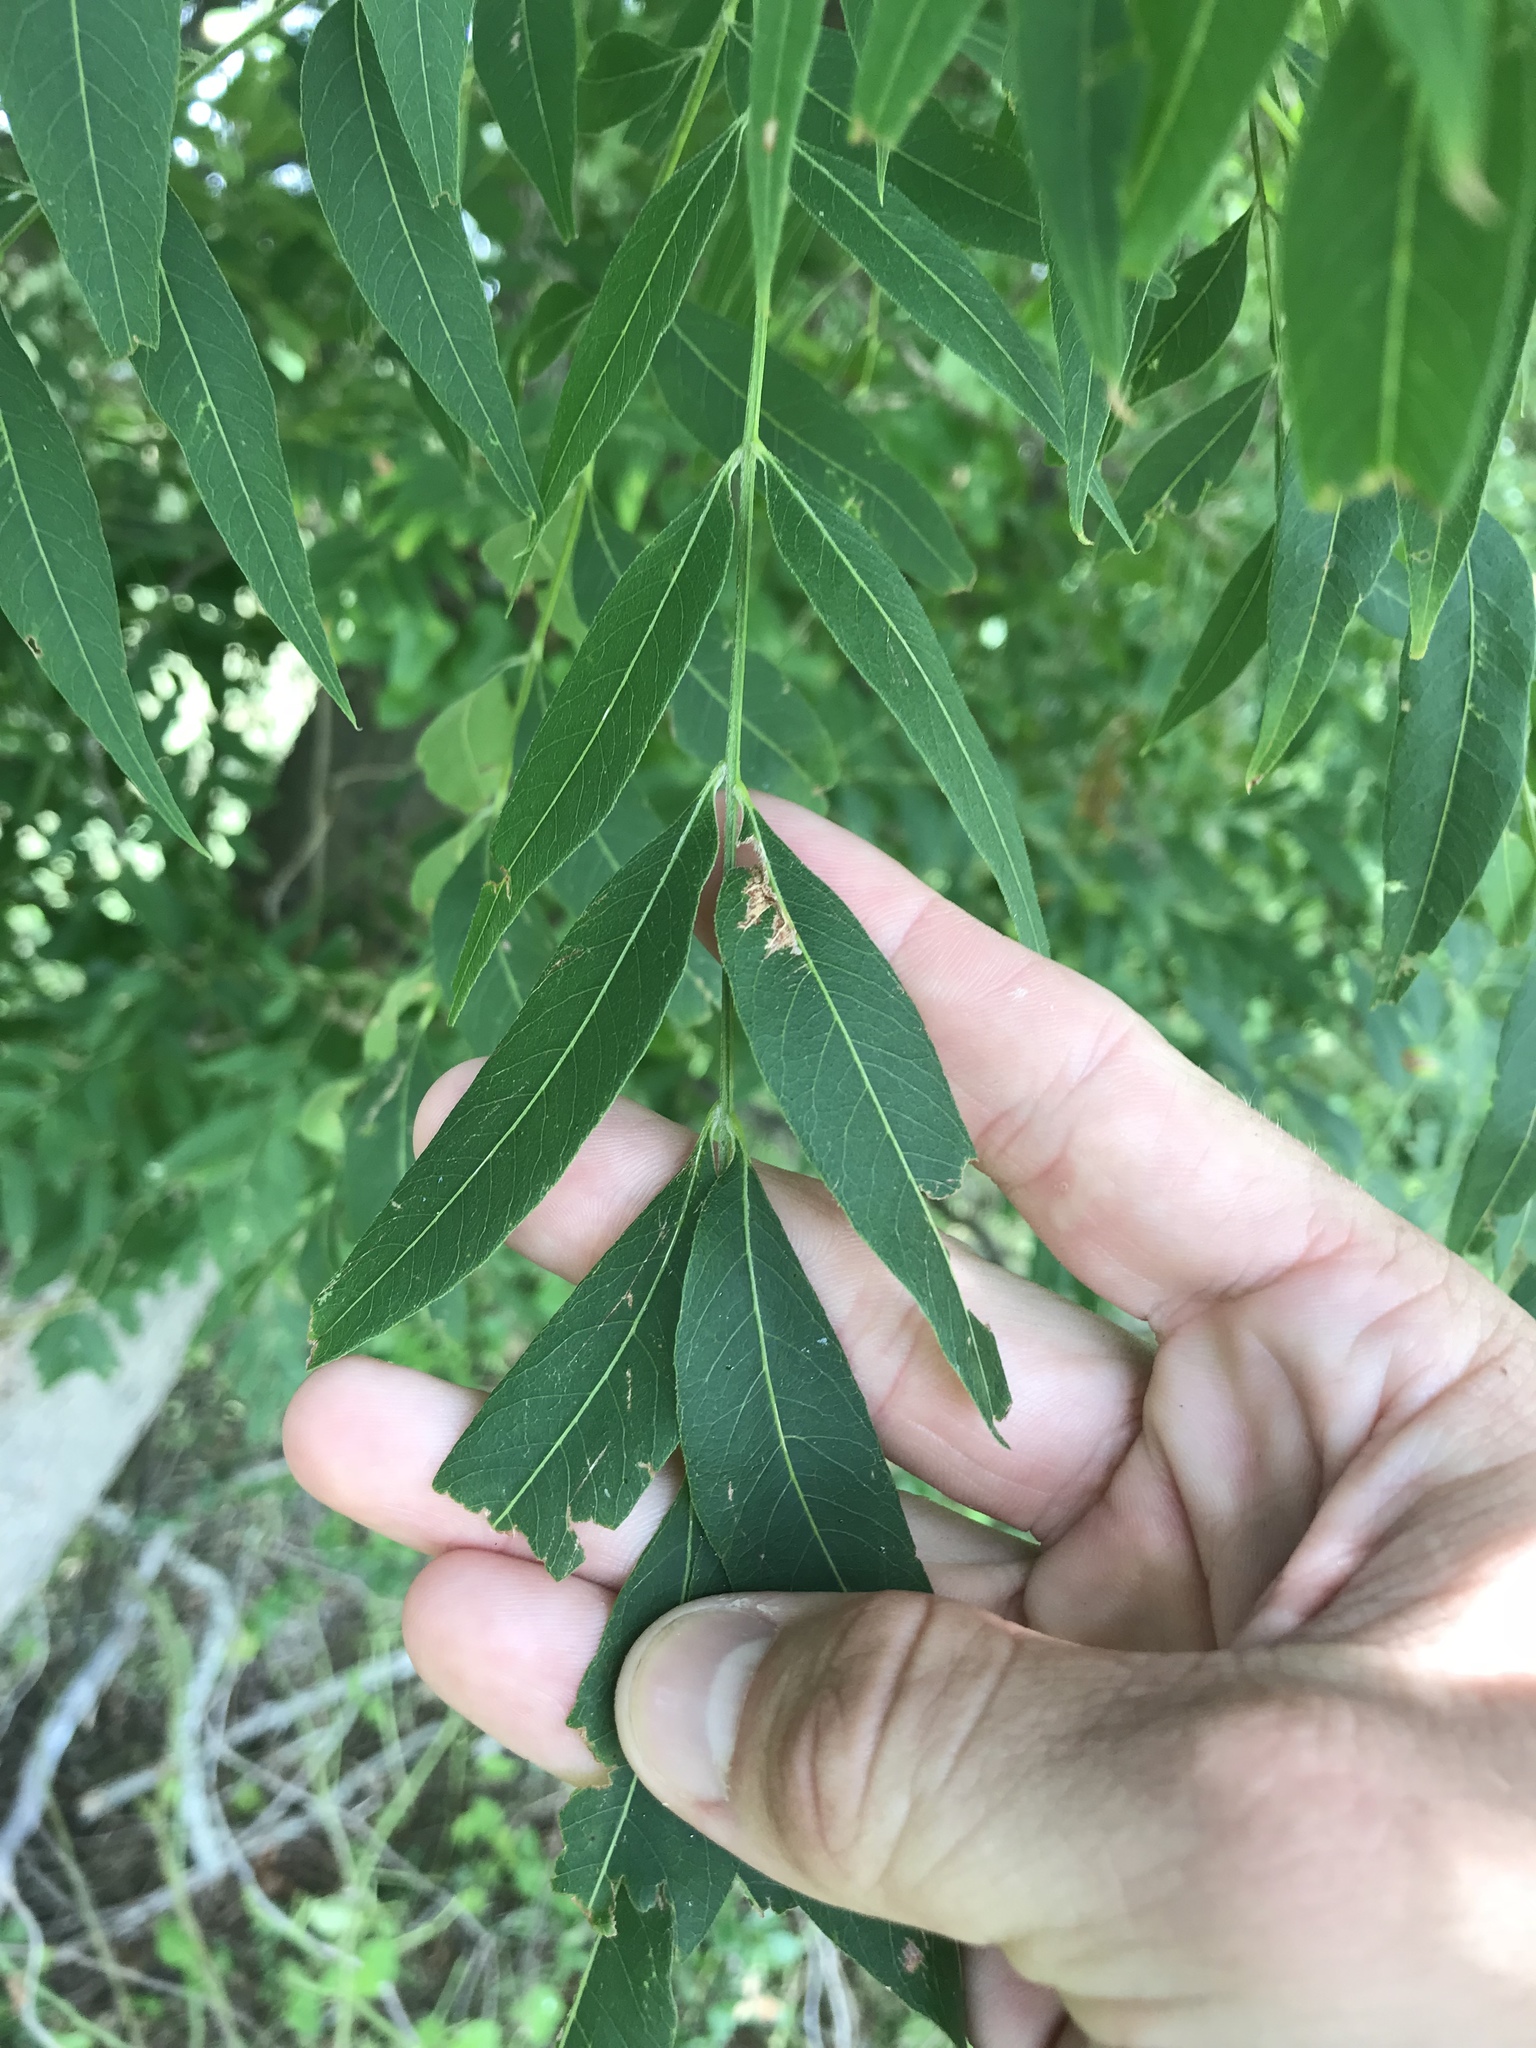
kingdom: Plantae
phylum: Tracheophyta
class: Magnoliopsida
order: Sapindales
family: Sapindaceae
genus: Sapindus
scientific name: Sapindus drummondii
